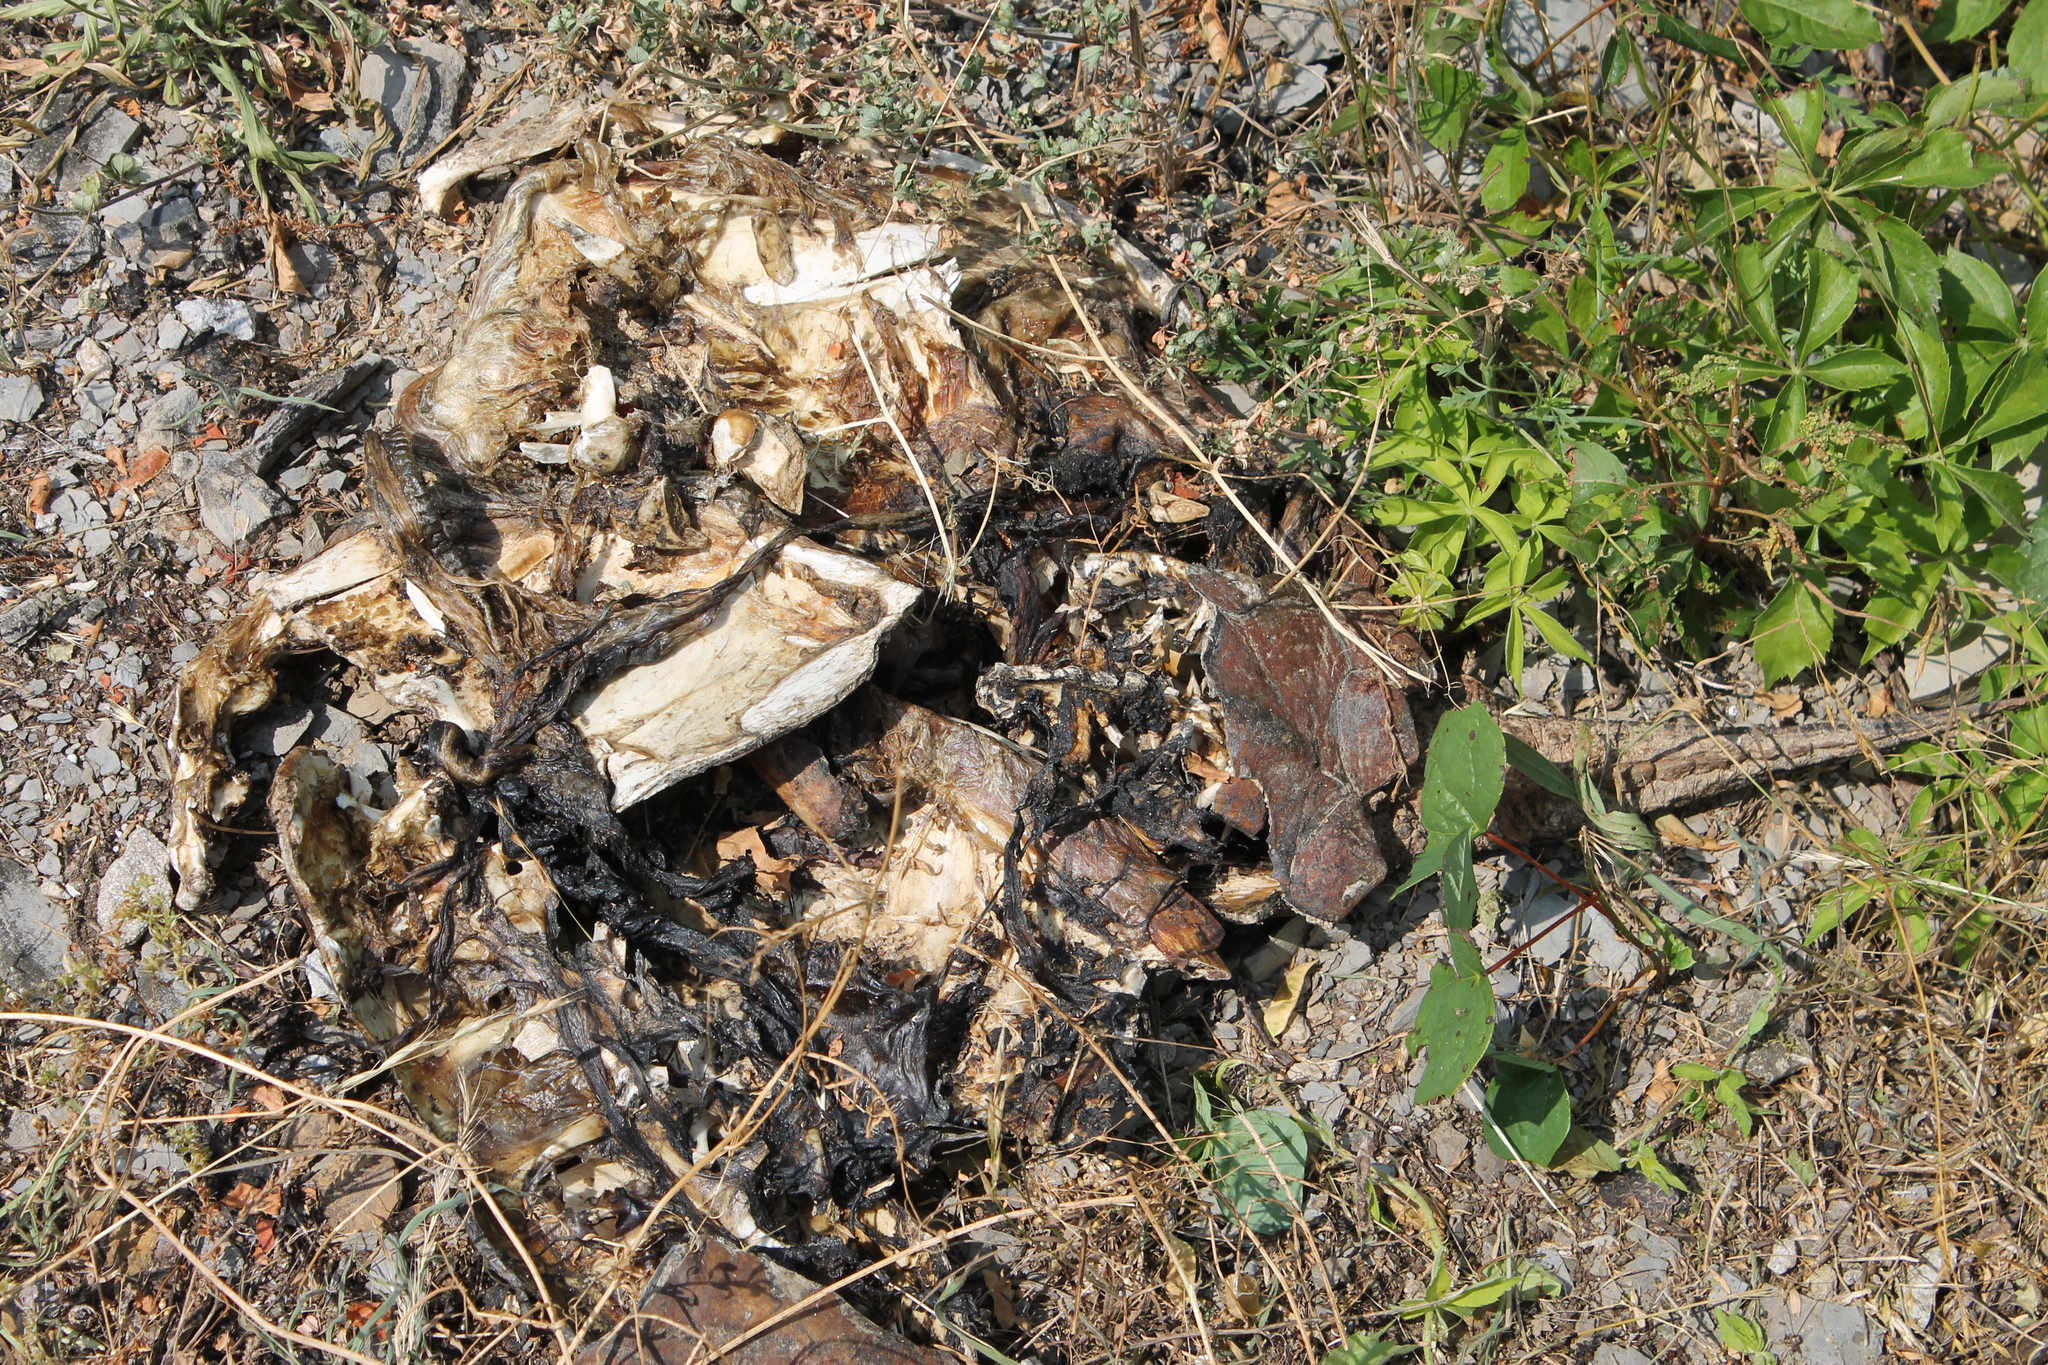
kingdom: Animalia
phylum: Chordata
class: Testudines
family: Chelydridae
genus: Chelydra
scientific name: Chelydra serpentina
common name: Common snapping turtle
